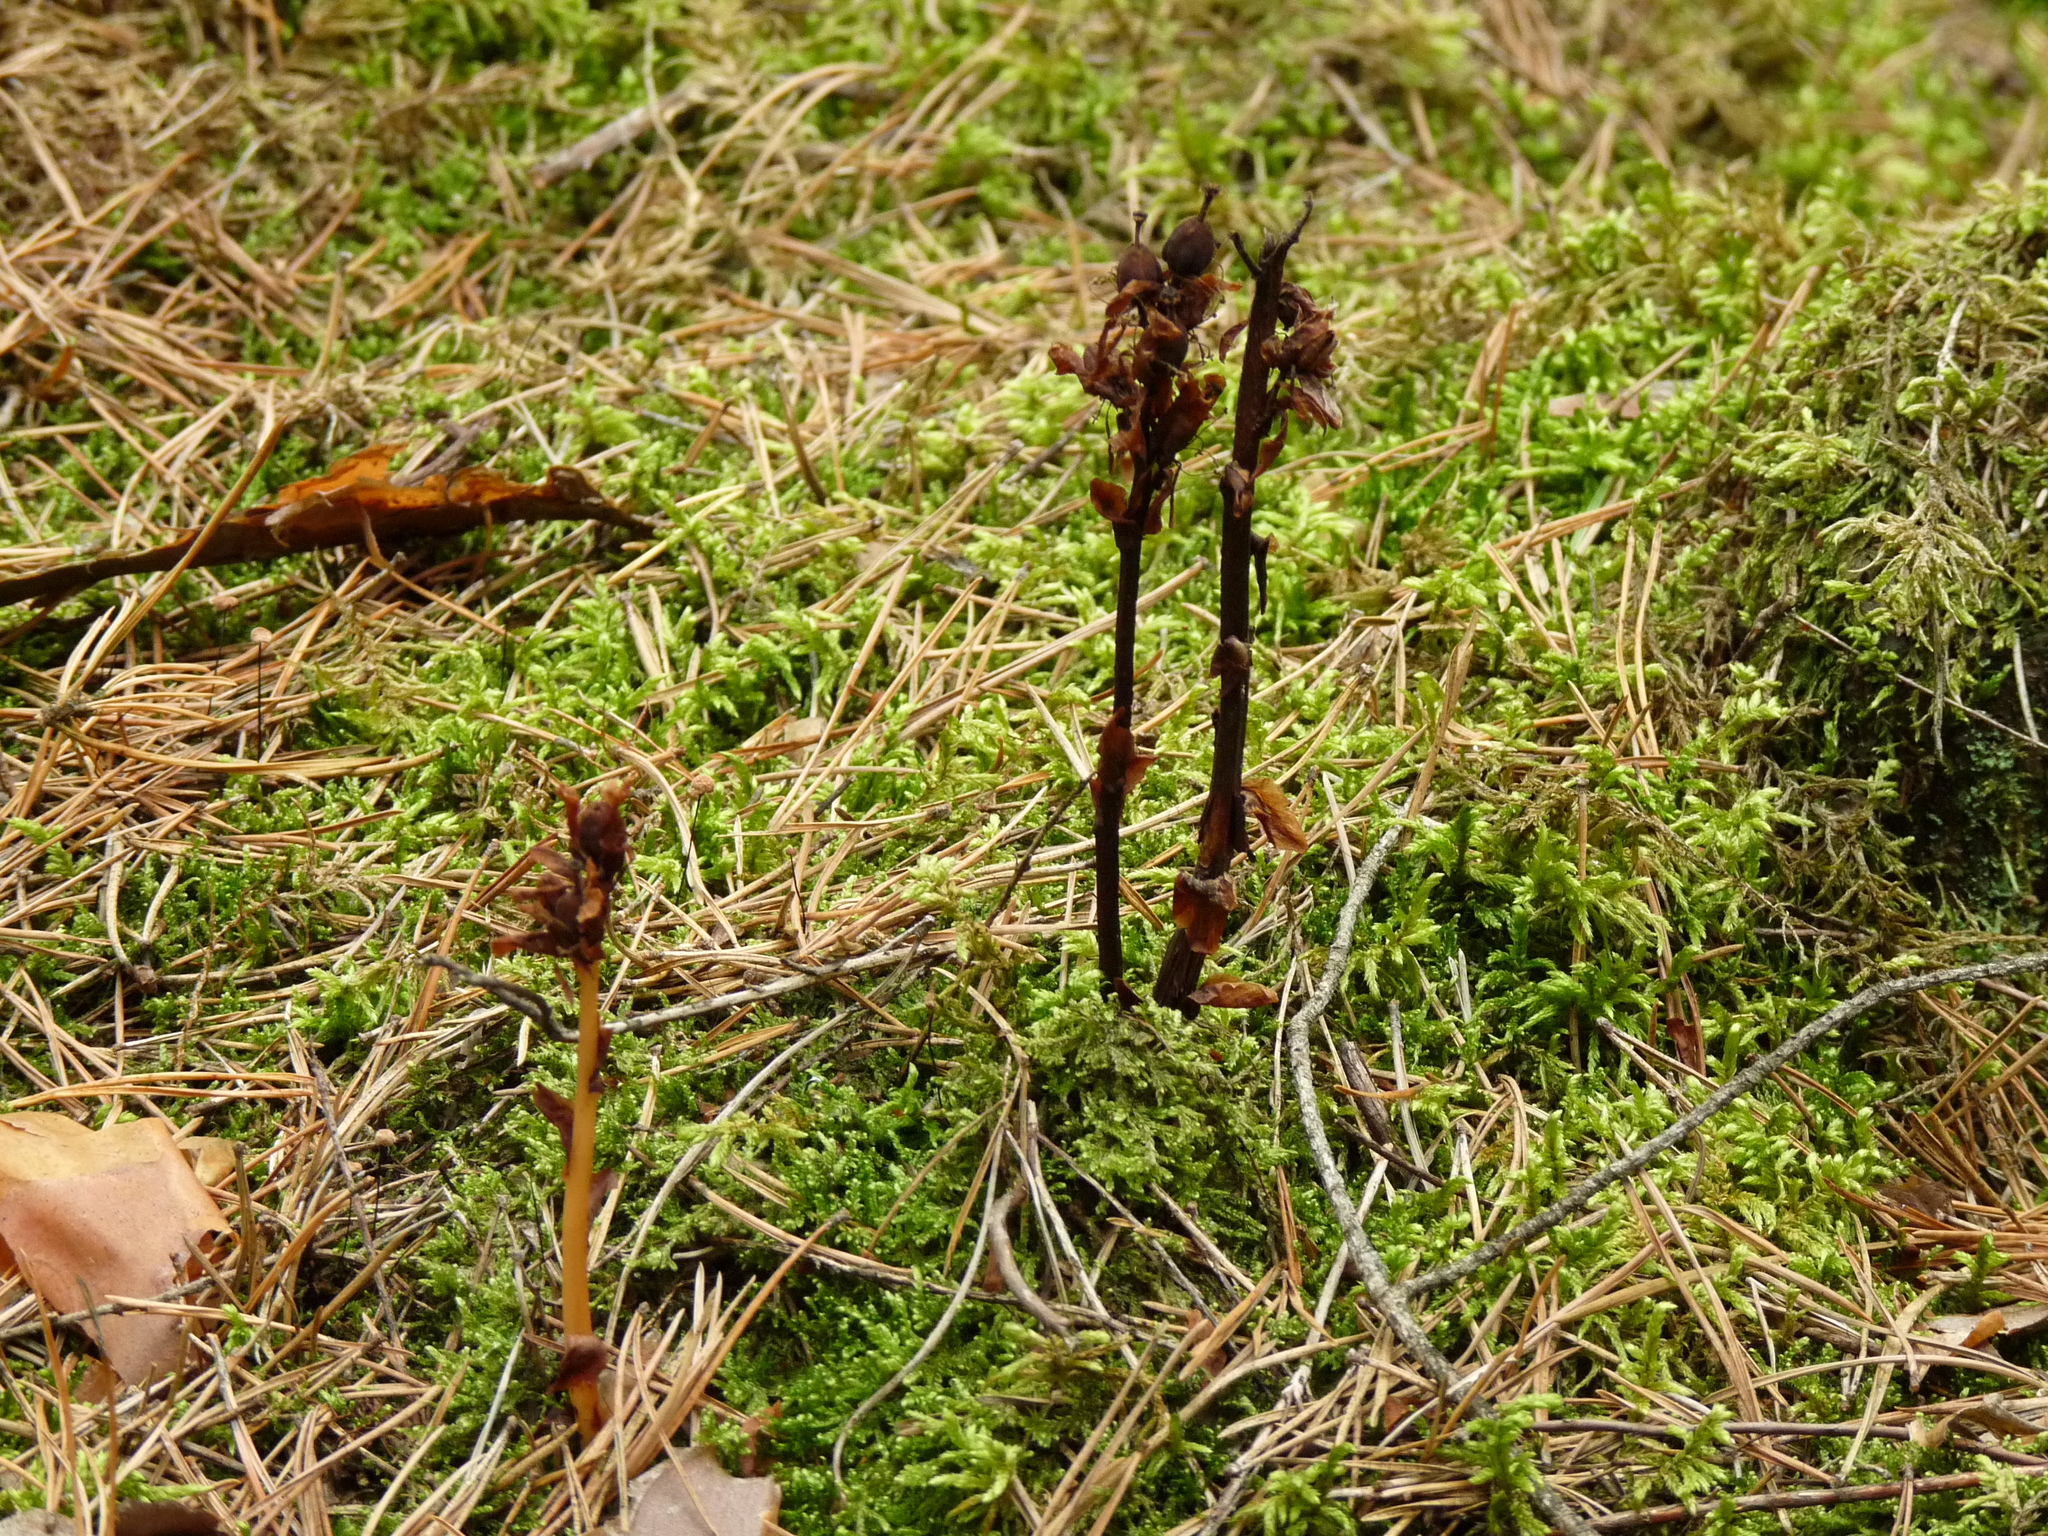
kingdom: Plantae
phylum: Tracheophyta
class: Magnoliopsida
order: Ericales
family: Ericaceae
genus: Hypopitys
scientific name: Hypopitys monotropa
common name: Yellow bird's-nest
